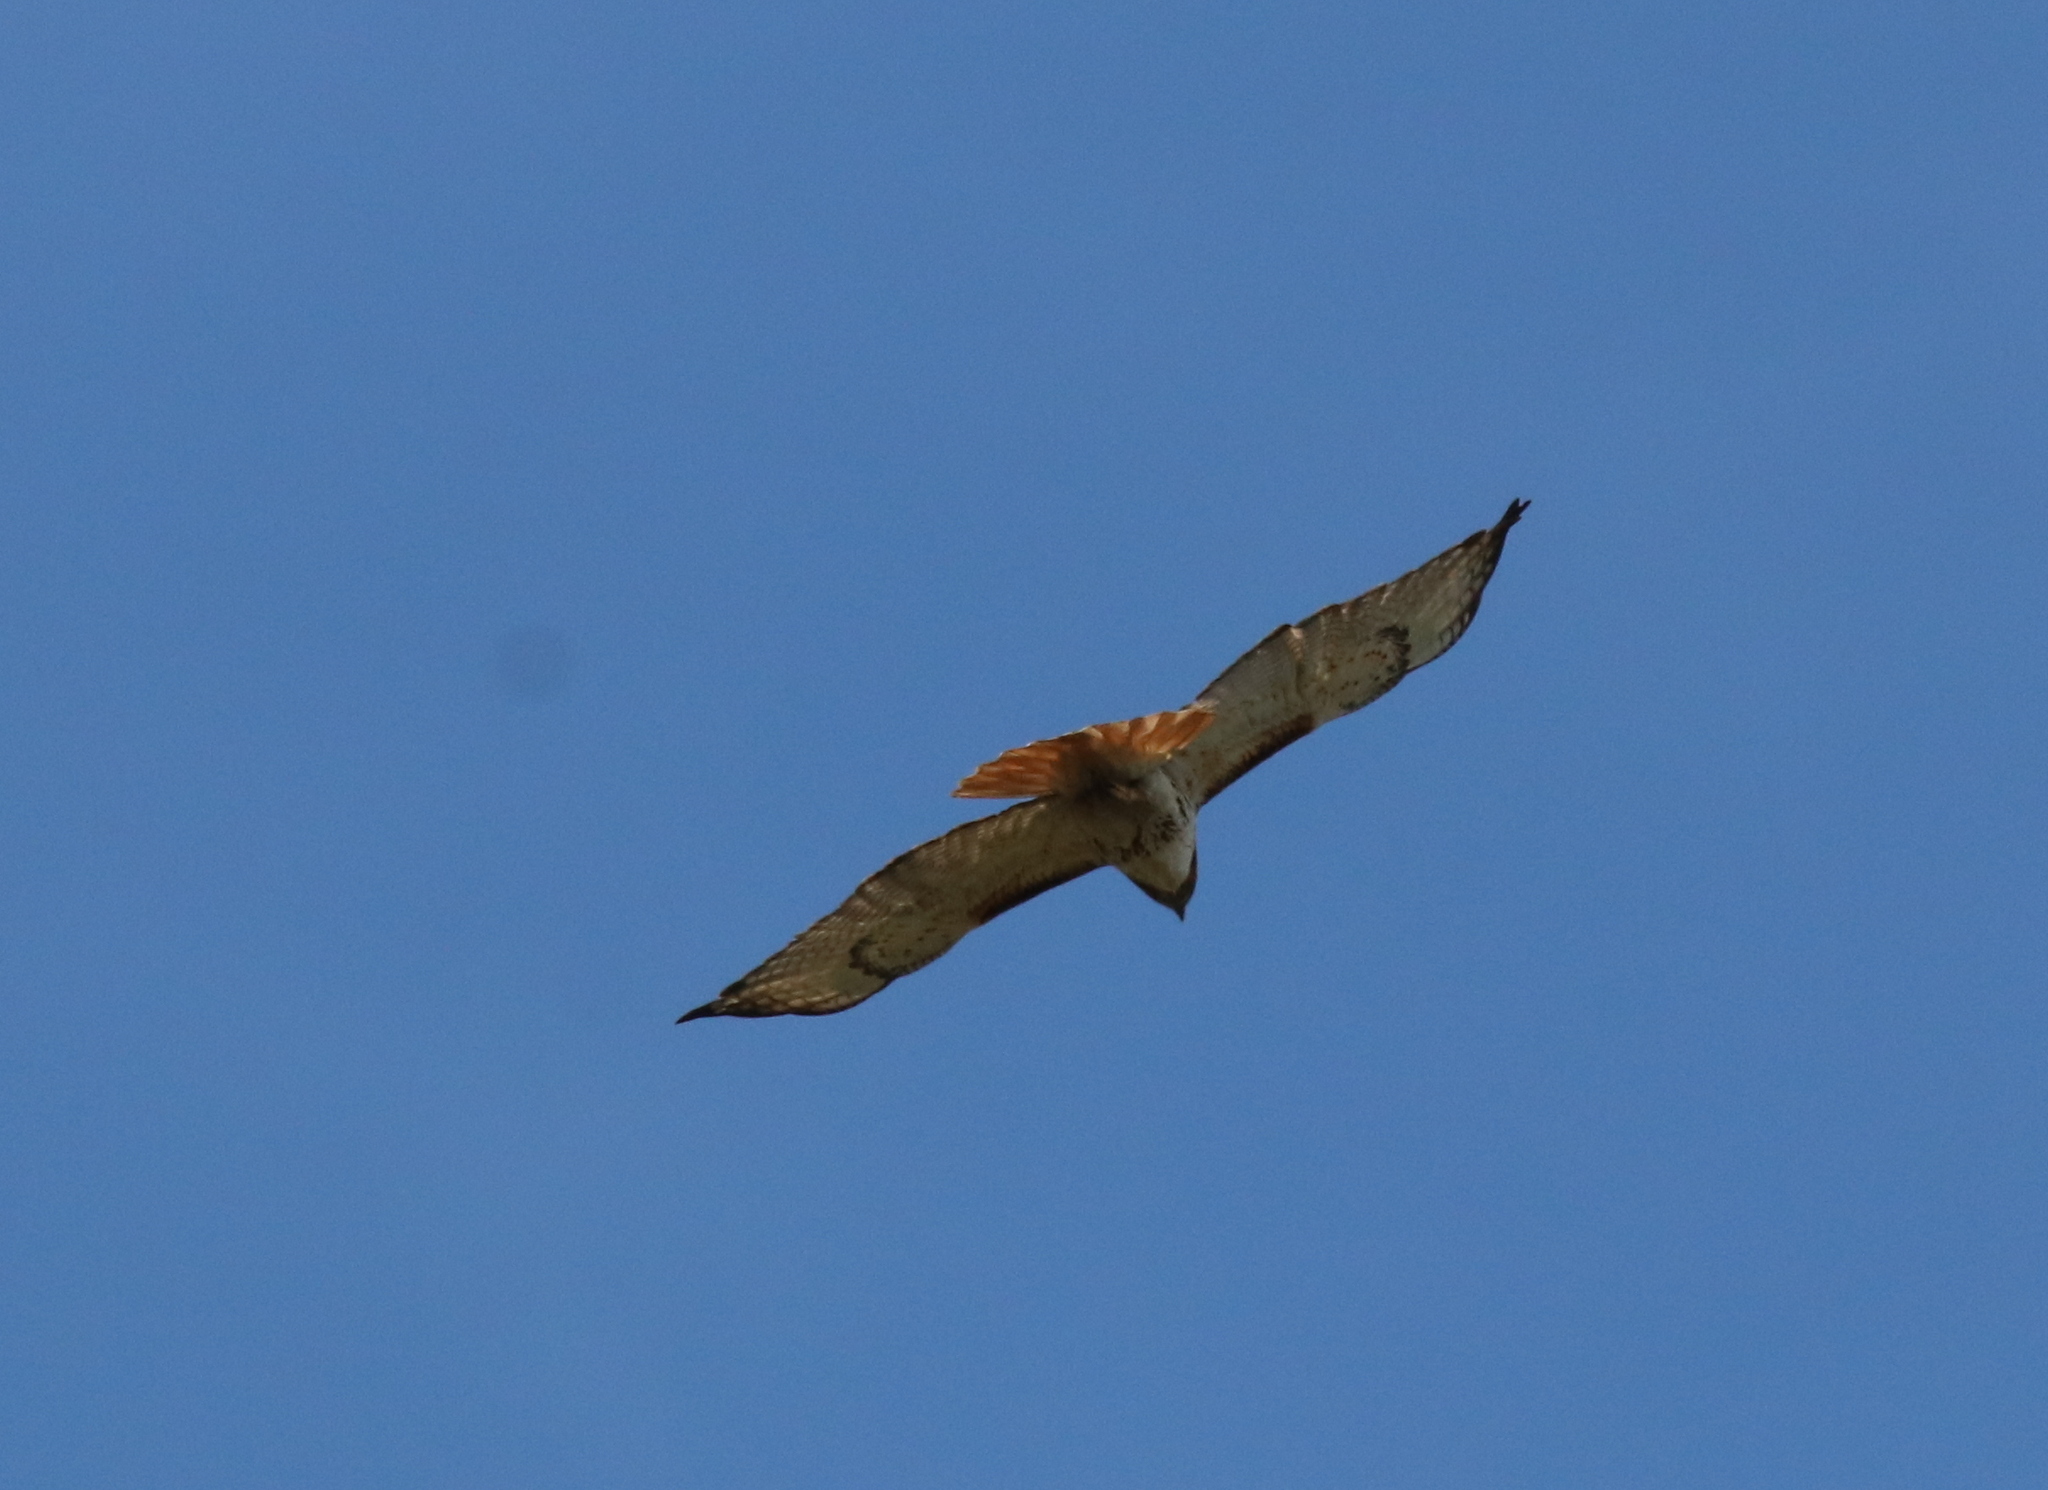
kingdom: Animalia
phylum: Chordata
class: Aves
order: Accipitriformes
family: Accipitridae
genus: Buteo
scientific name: Buteo jamaicensis
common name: Red-tailed hawk
